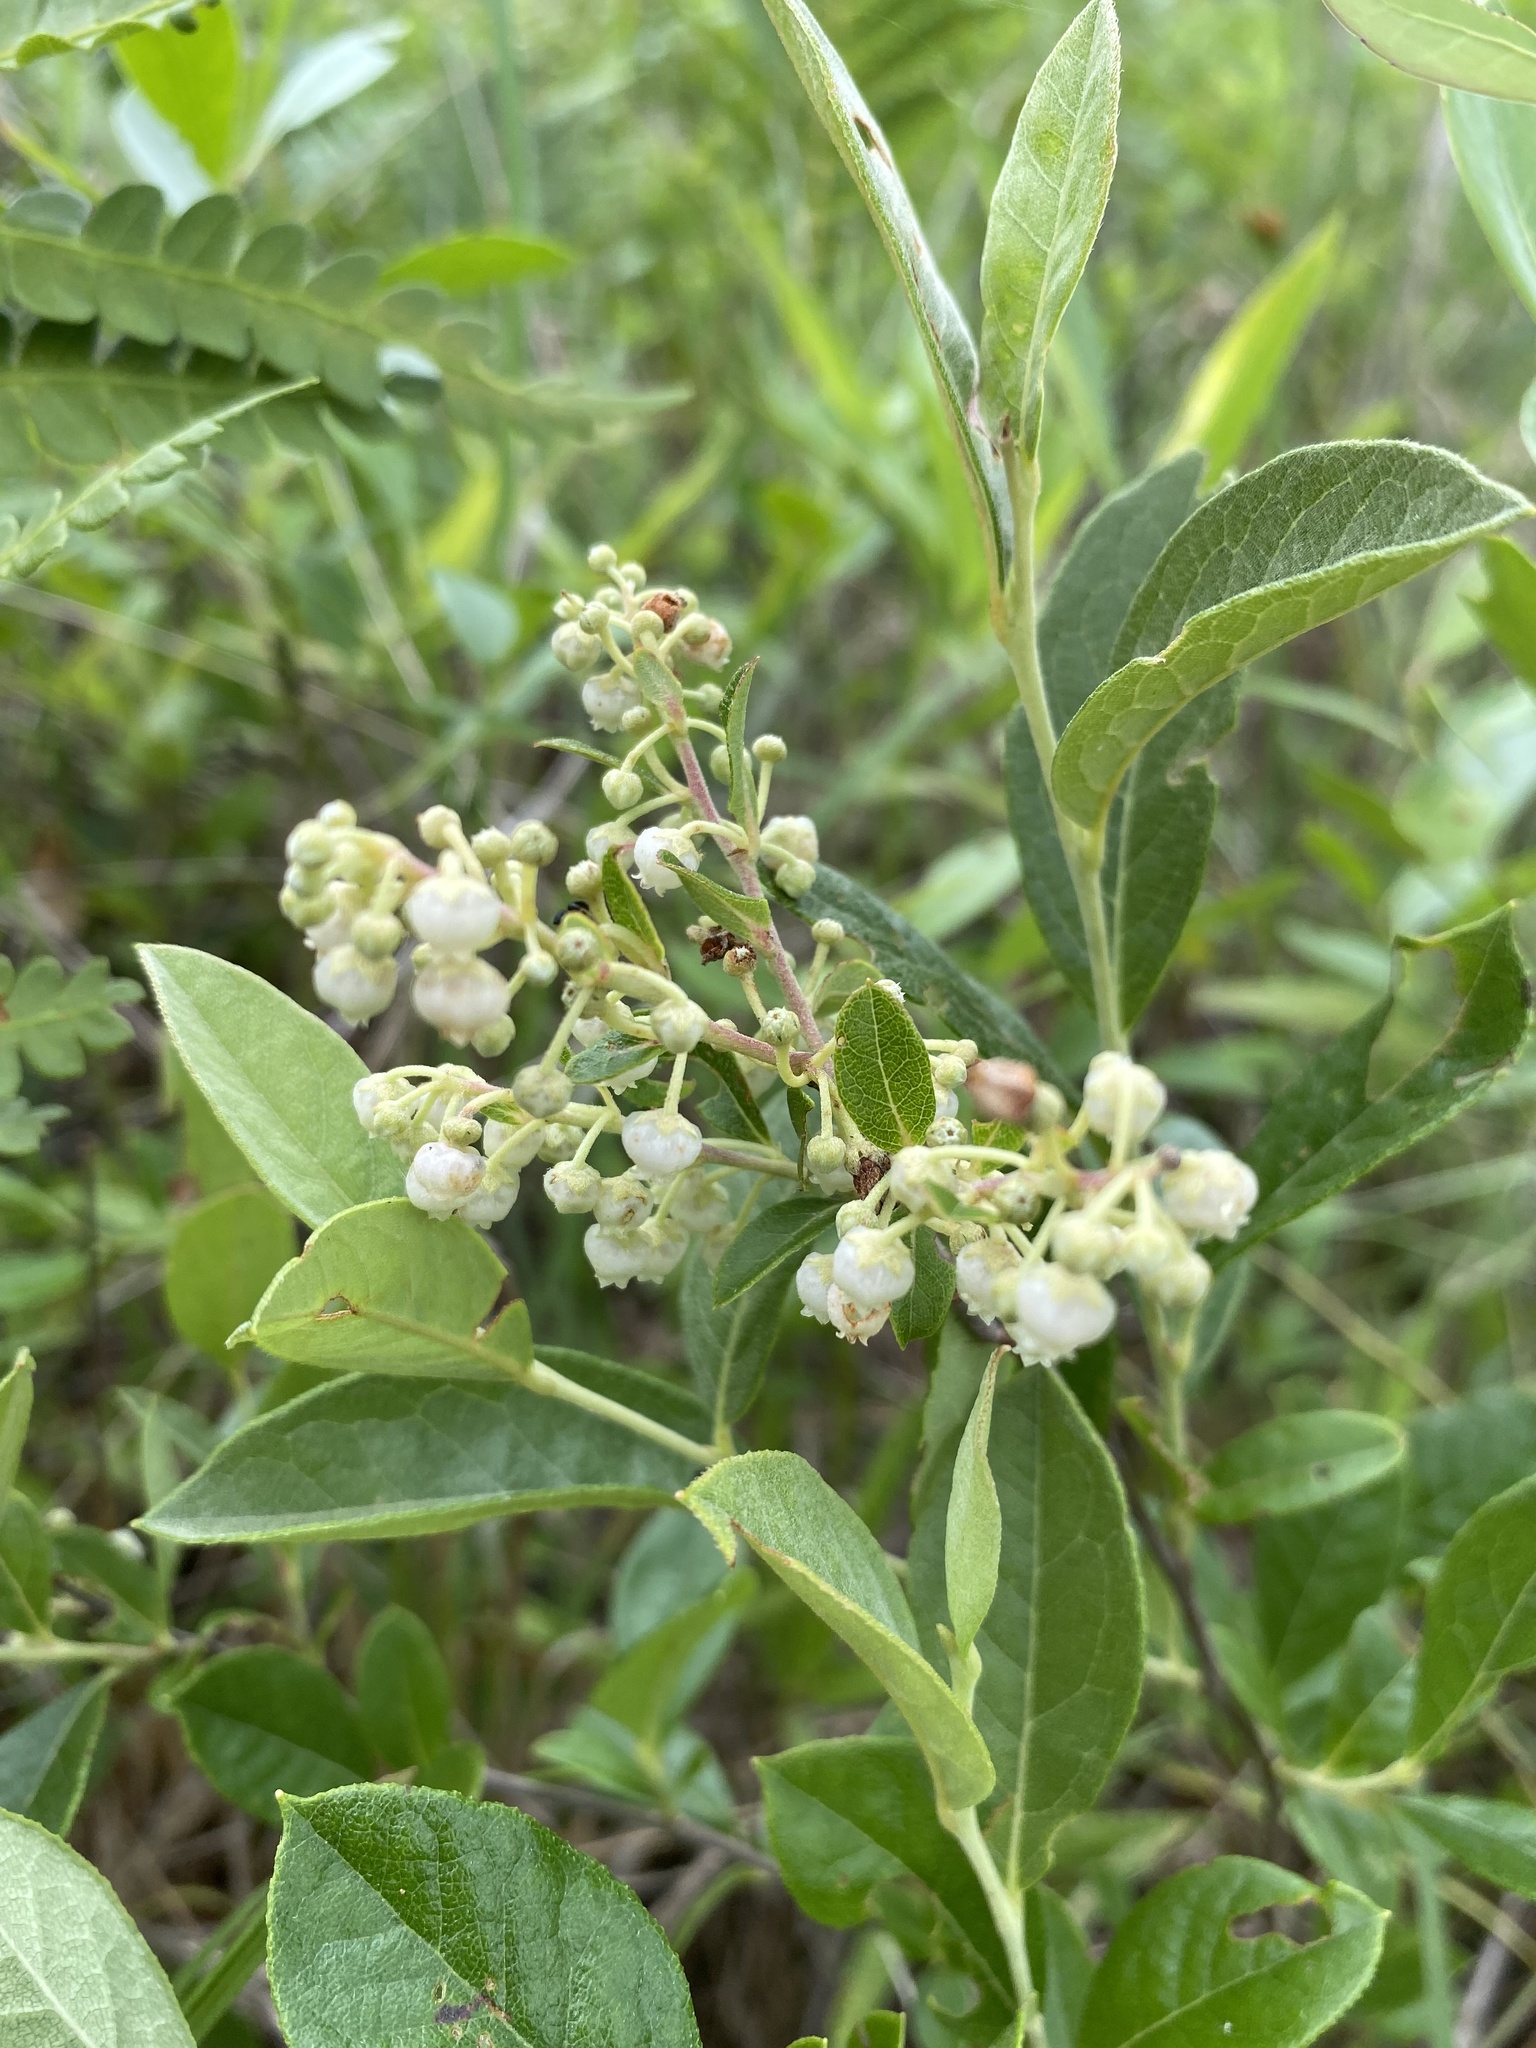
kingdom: Plantae
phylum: Tracheophyta
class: Magnoliopsida
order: Ericales
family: Ericaceae
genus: Lyonia
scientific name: Lyonia ligustrina
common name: Maleberry
